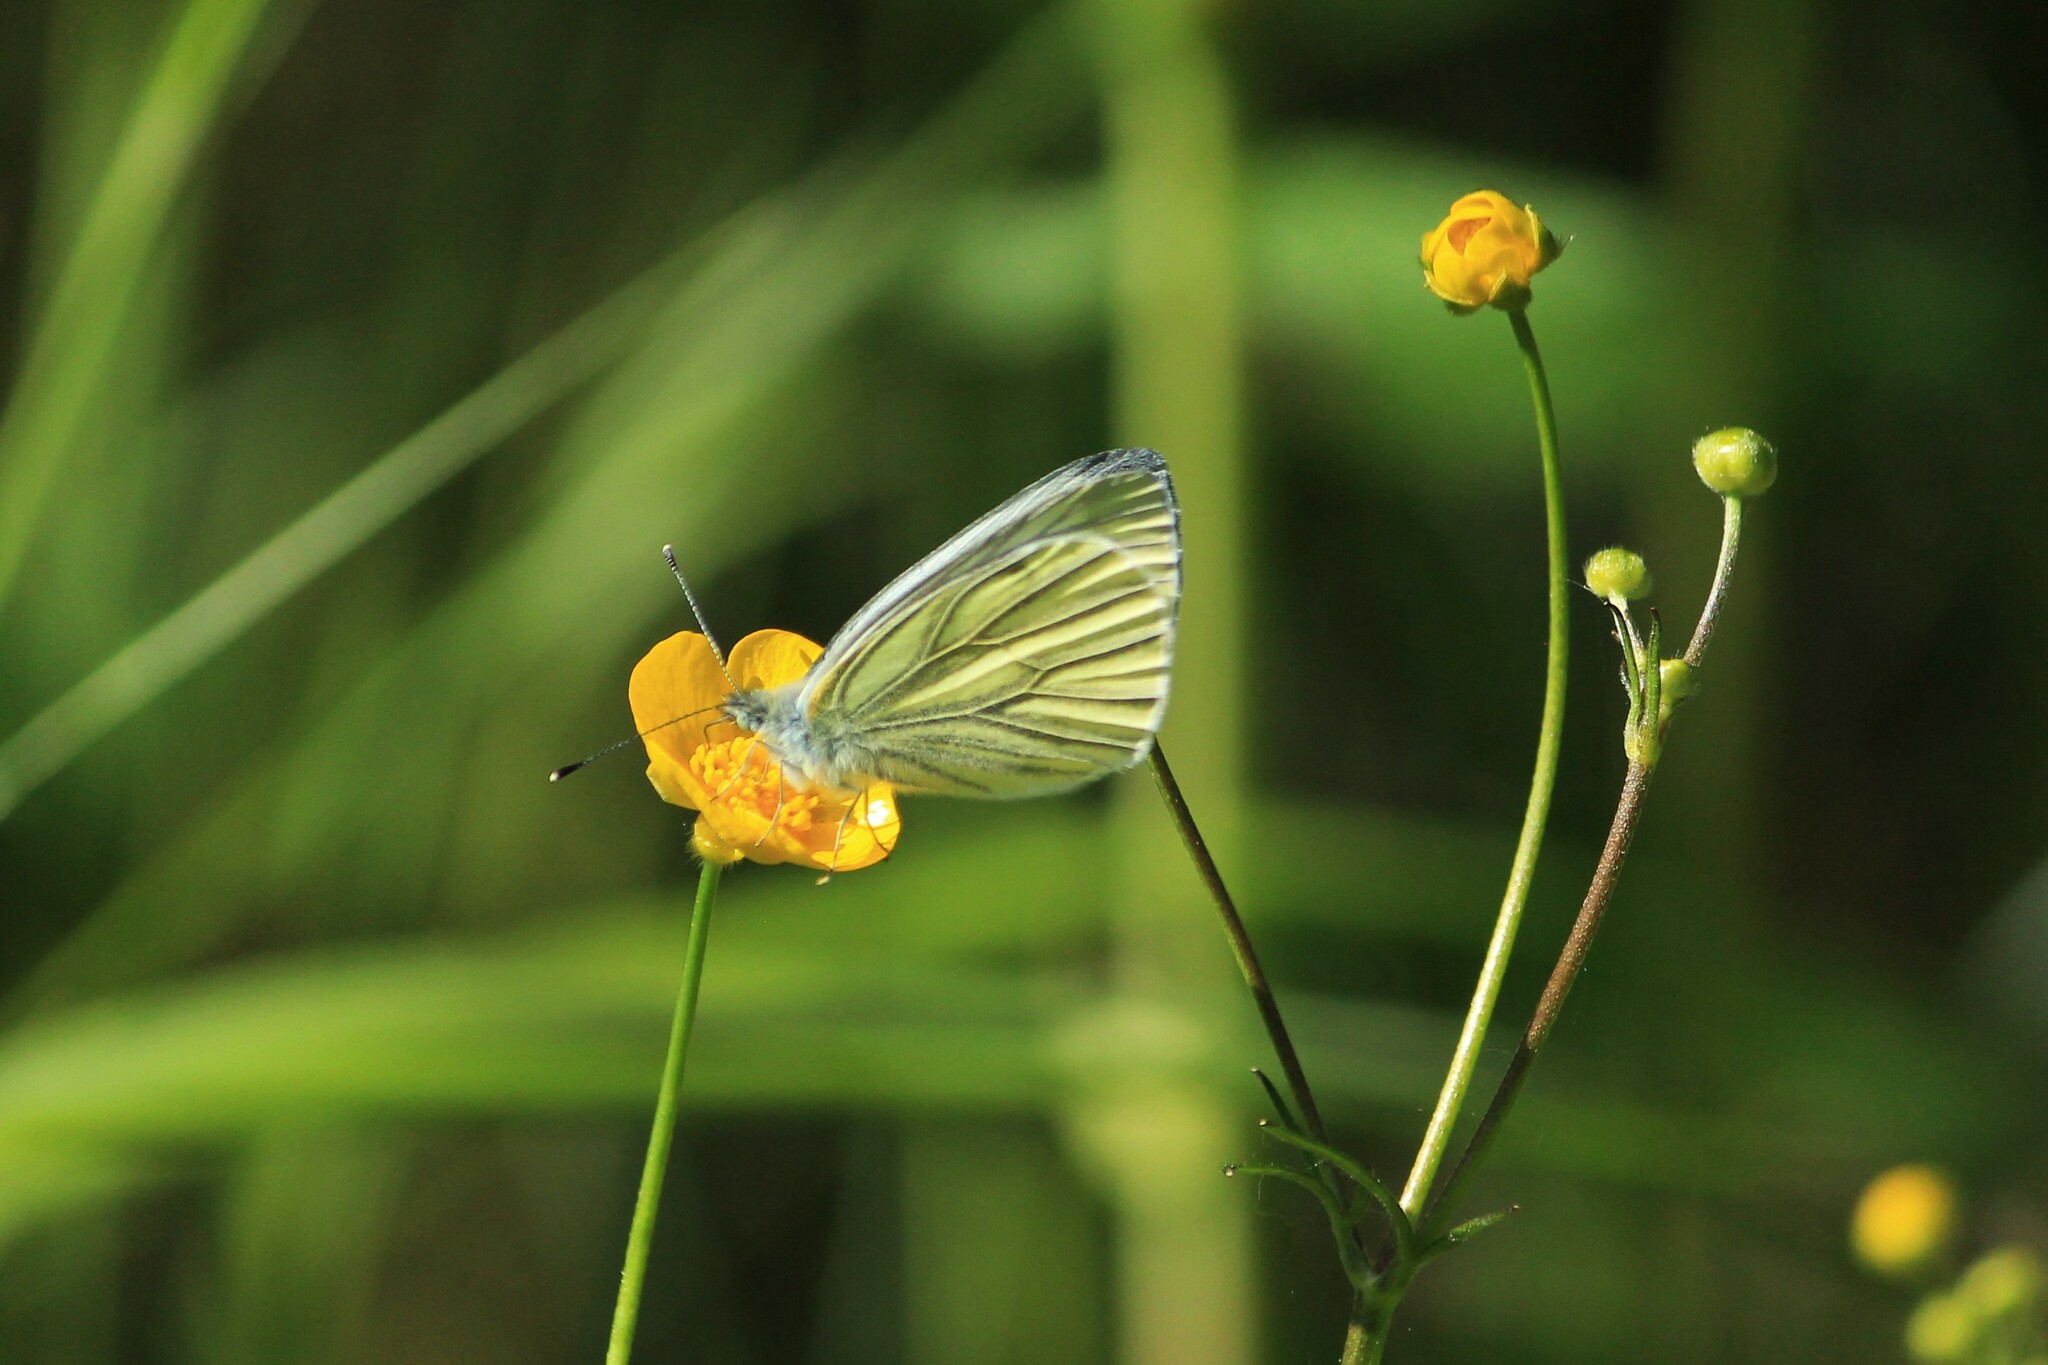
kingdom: Animalia
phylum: Arthropoda
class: Insecta
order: Lepidoptera
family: Pieridae
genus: Pieris
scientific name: Pieris napi
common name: Green-veined white
